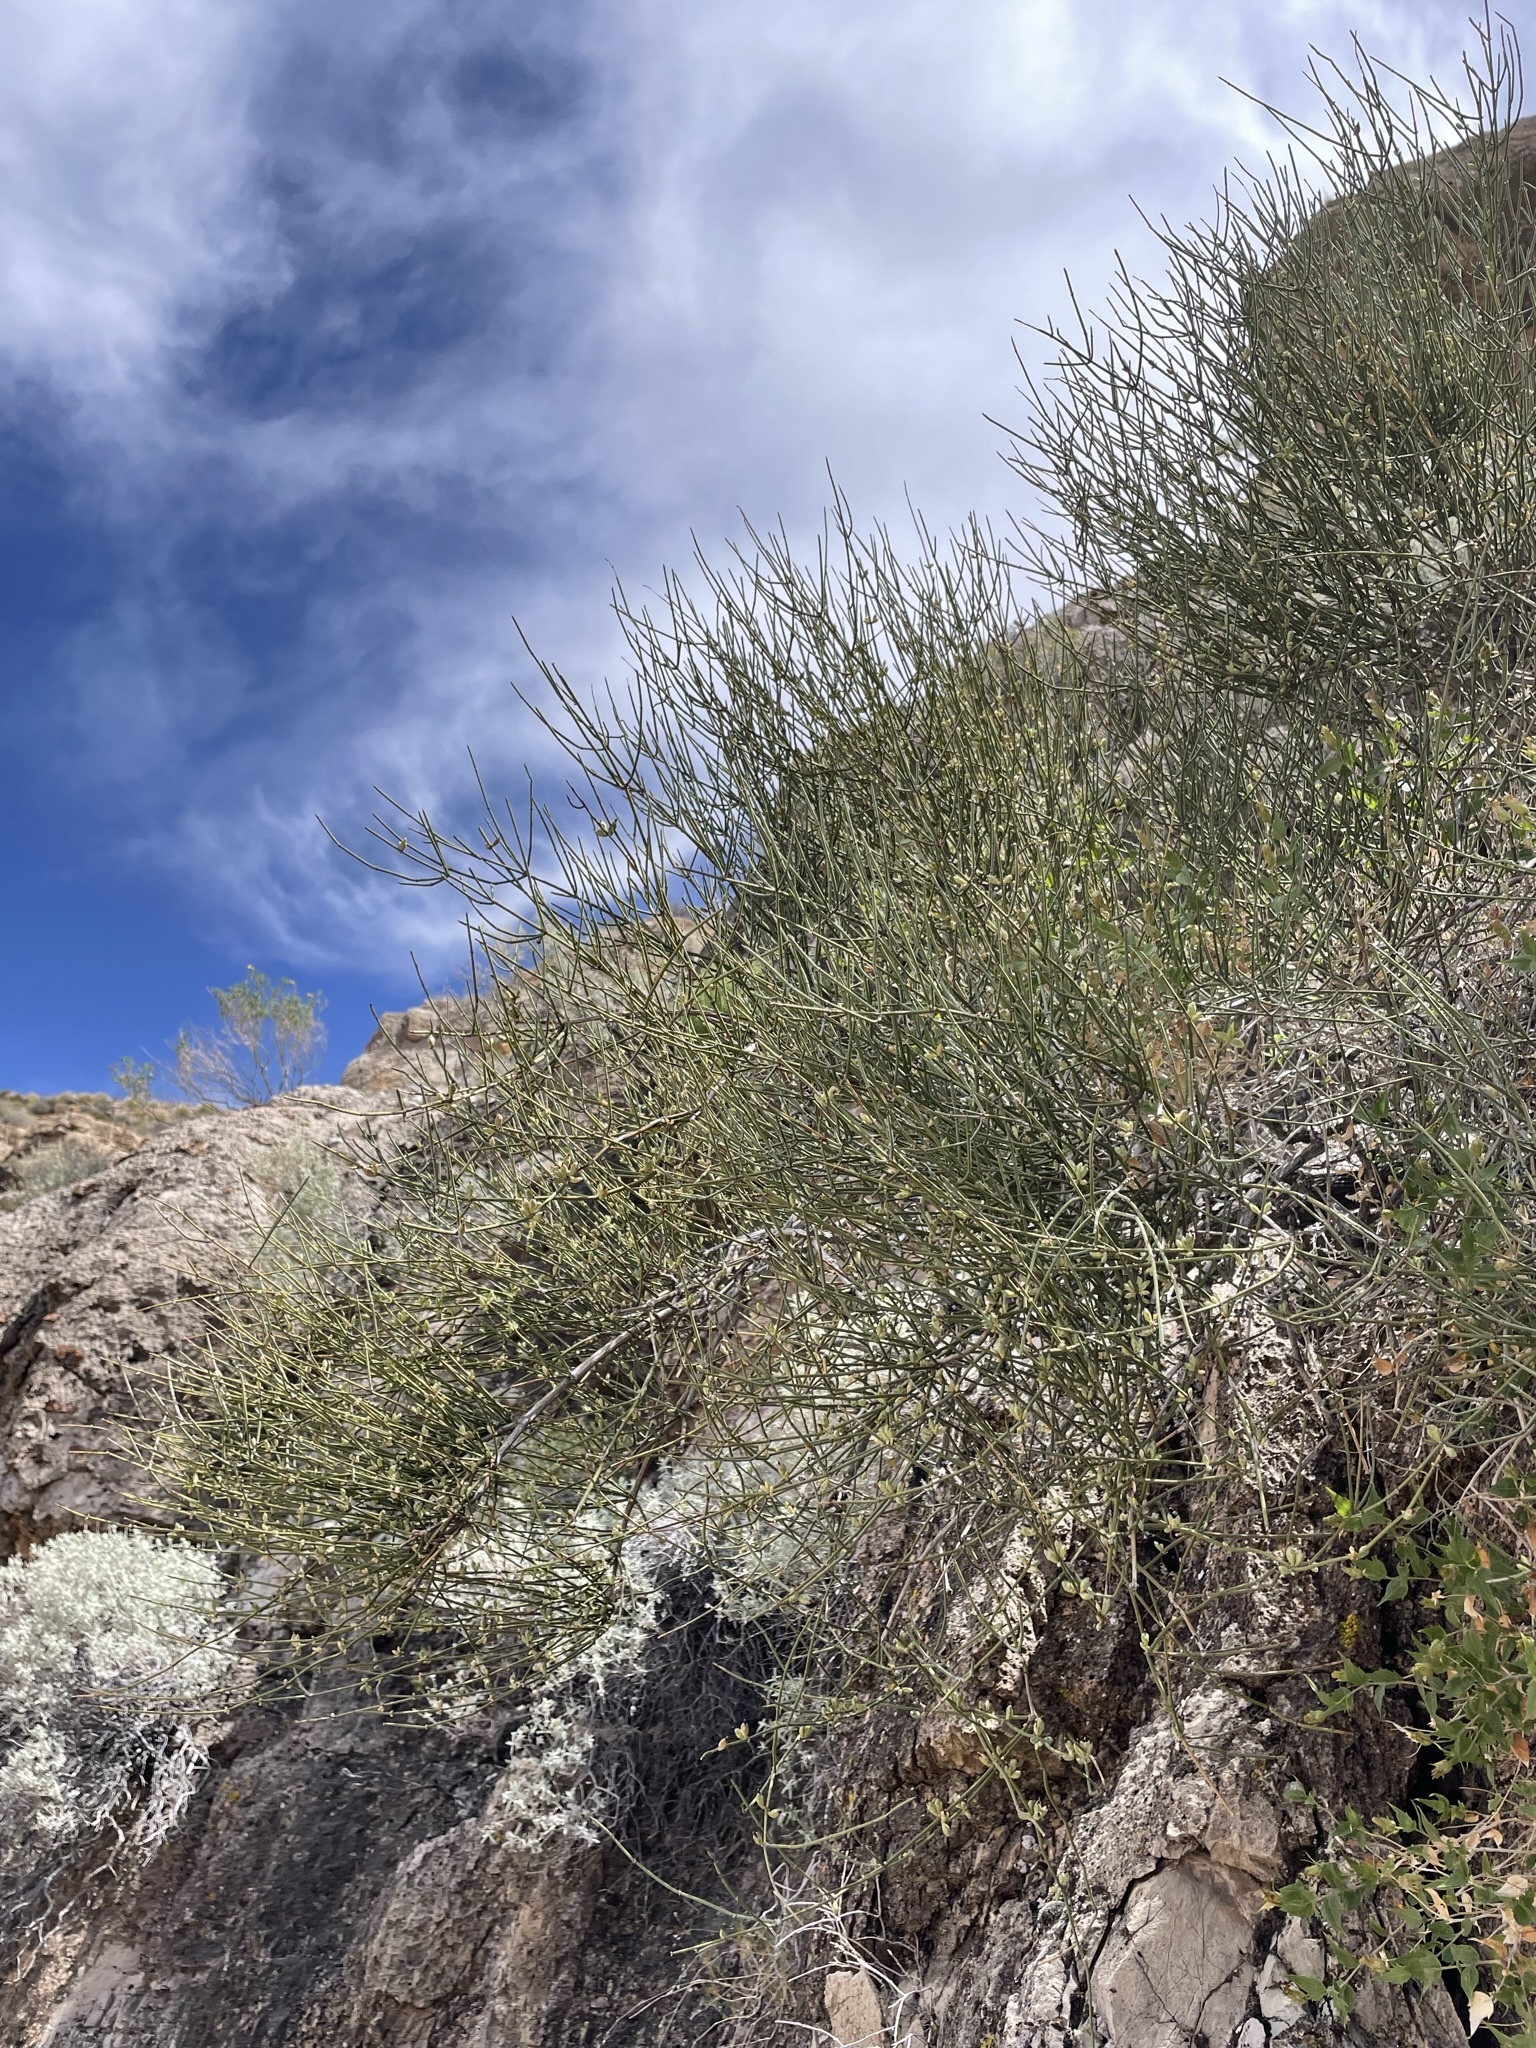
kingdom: Plantae
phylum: Tracheophyta
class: Gnetopsida
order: Ephedrales
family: Ephedraceae
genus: Ephedra
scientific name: Ephedra aspera
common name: Boundary ephedra
